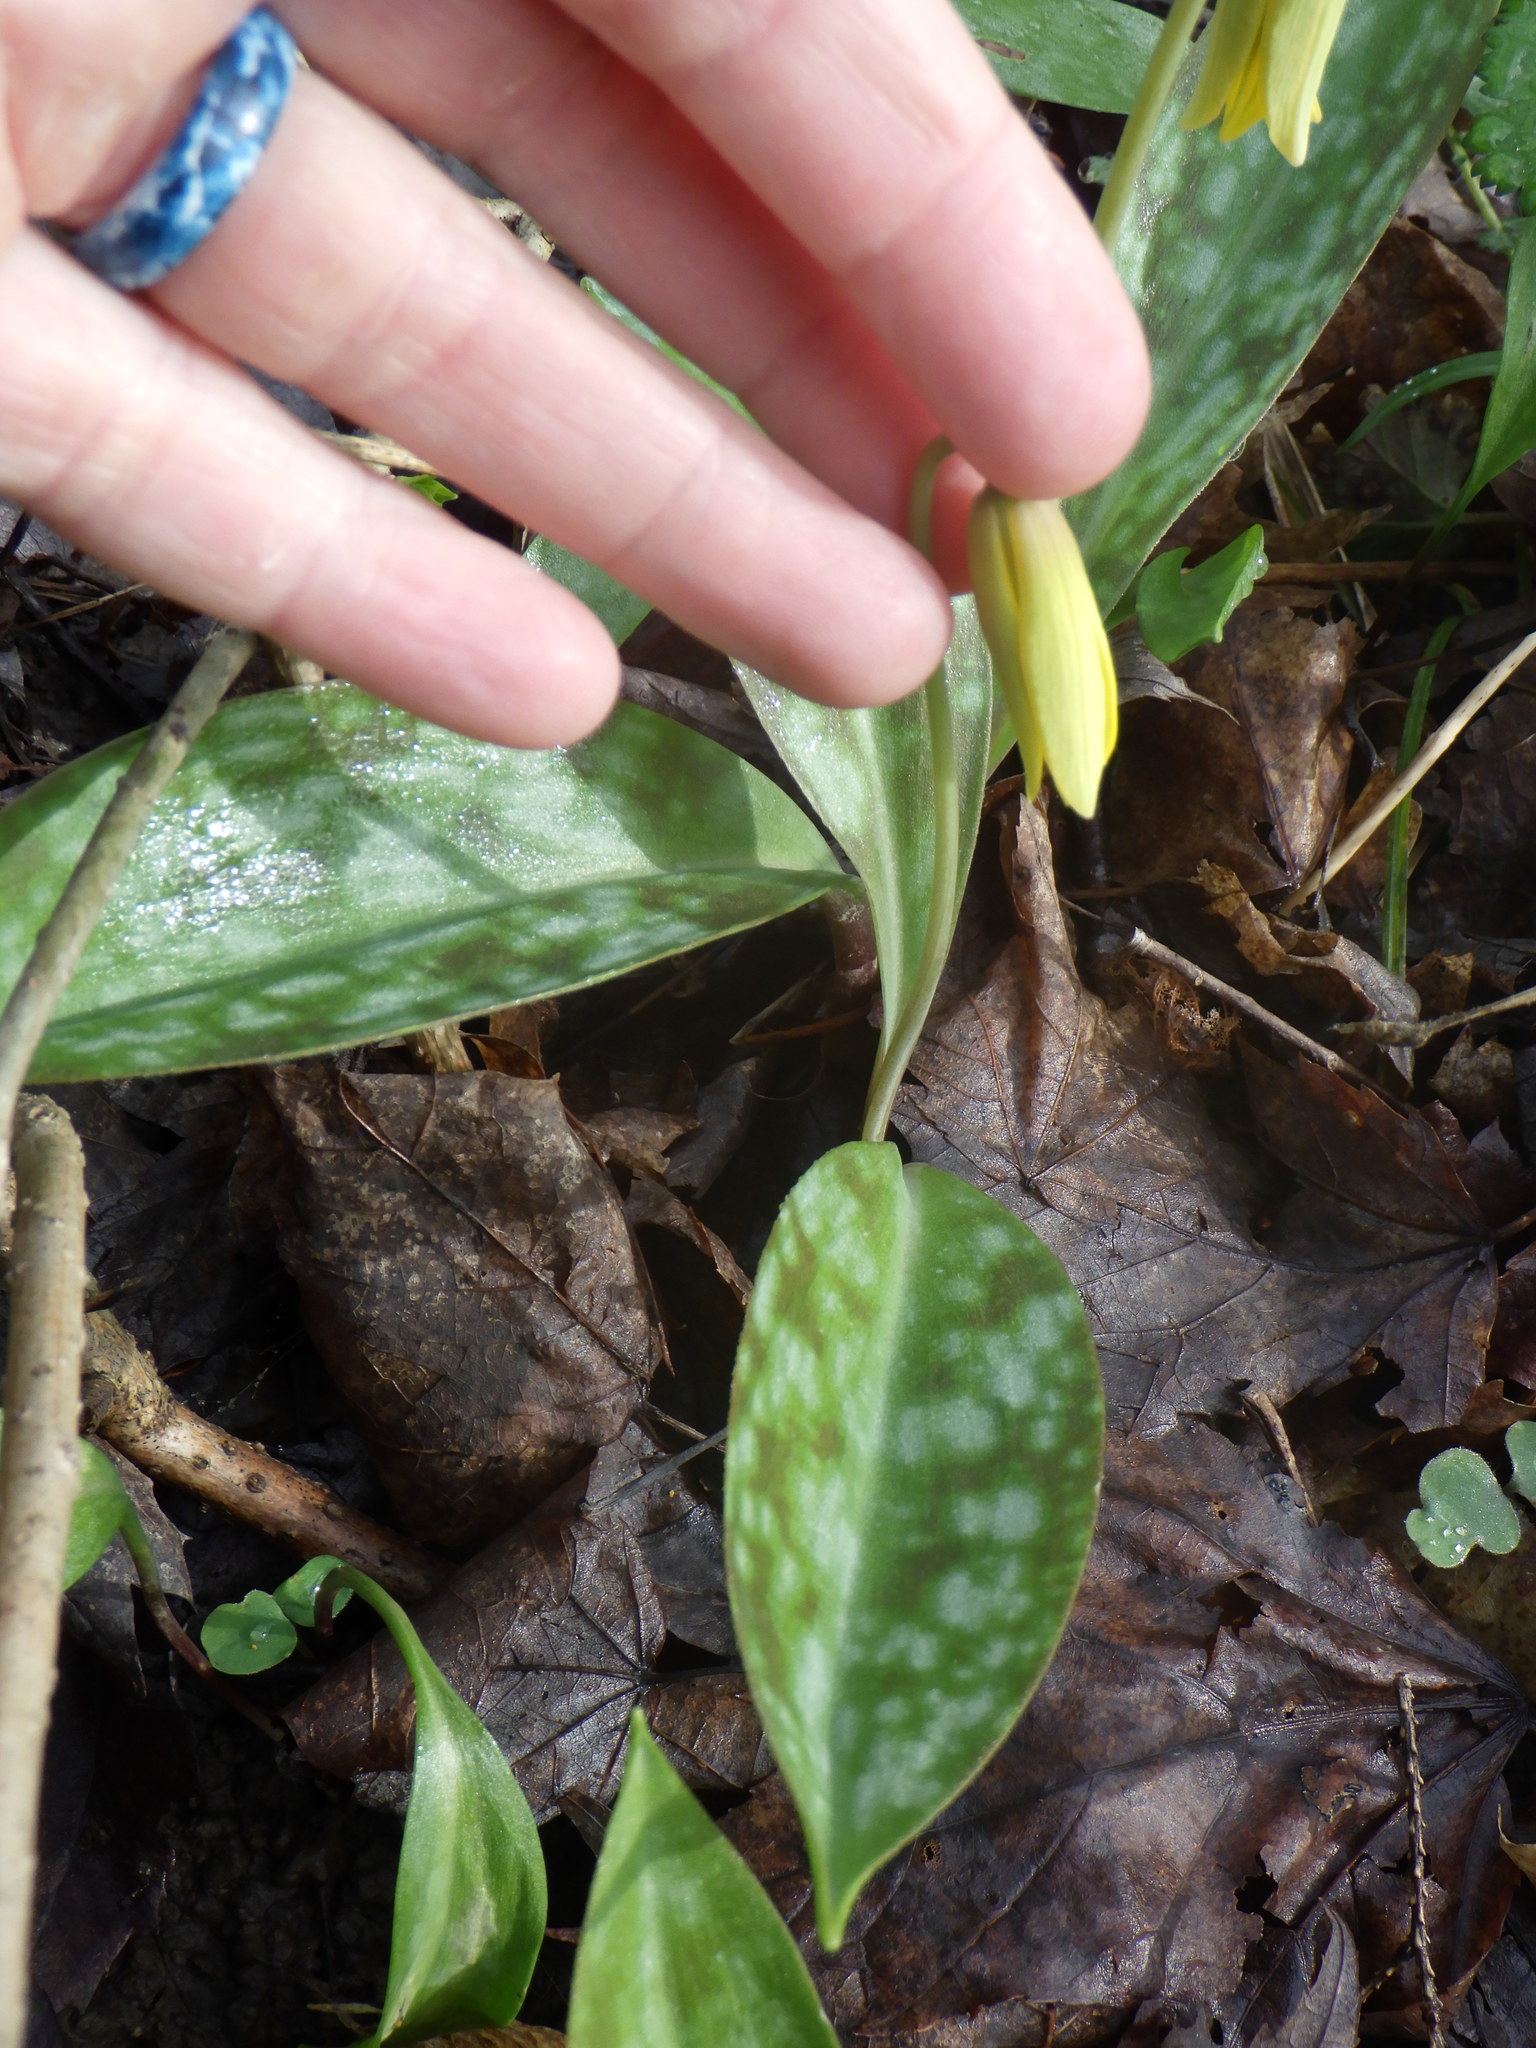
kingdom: Plantae
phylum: Tracheophyta
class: Liliopsida
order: Liliales
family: Liliaceae
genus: Erythronium
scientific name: Erythronium americanum
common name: Yellow adder's-tongue
